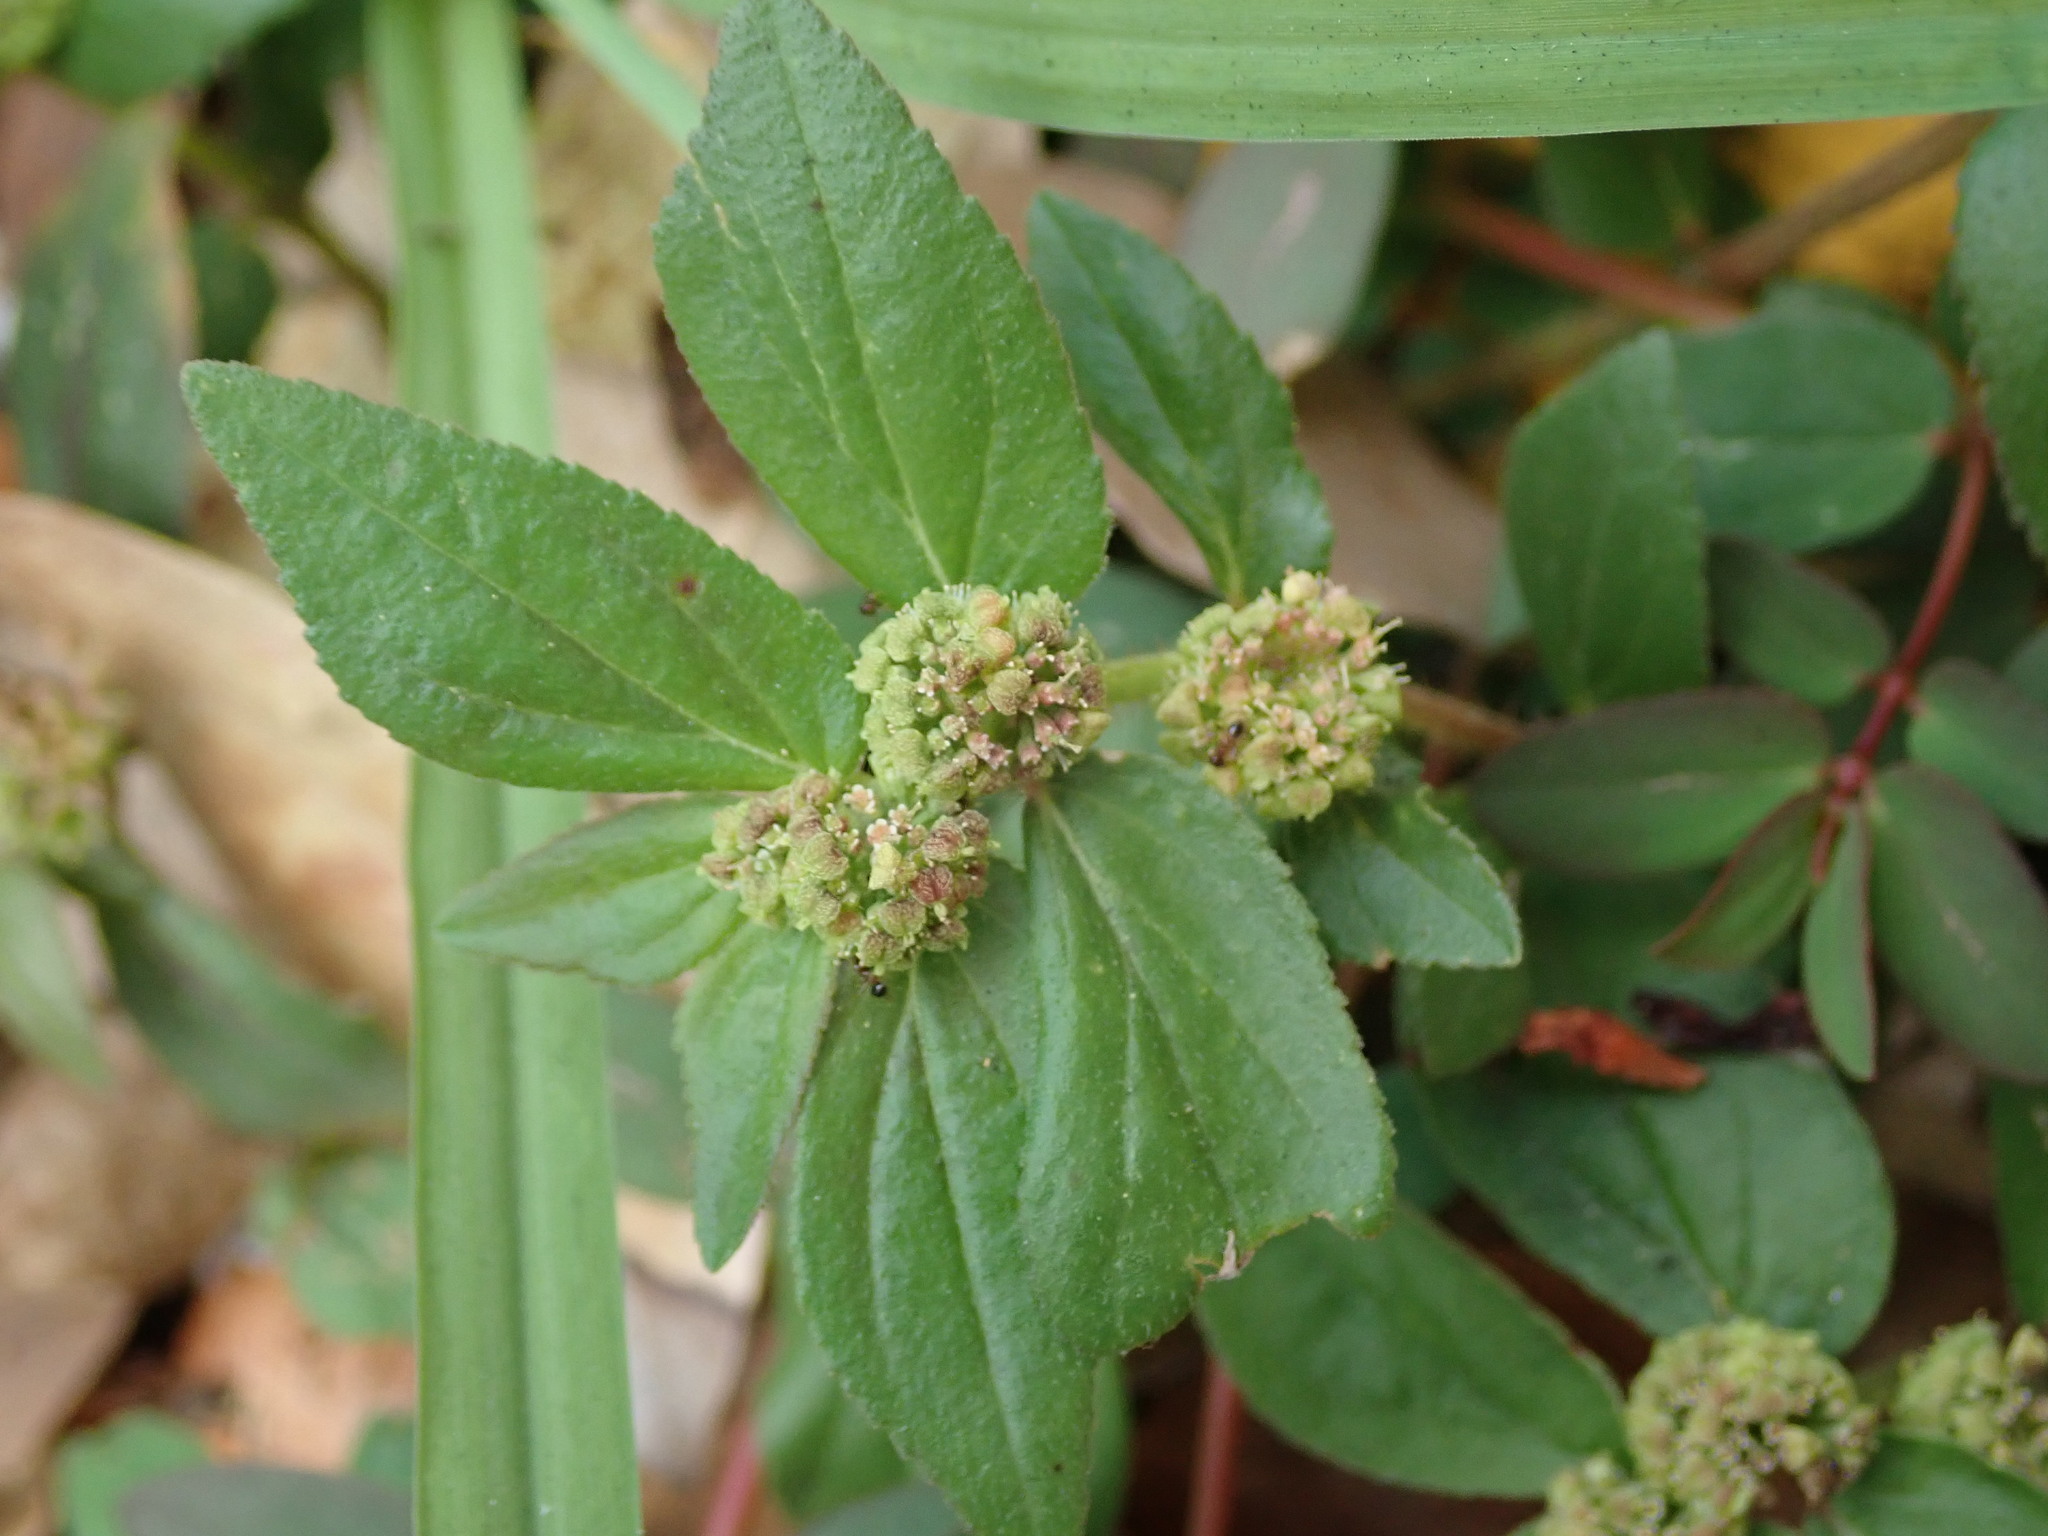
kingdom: Plantae
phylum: Tracheophyta
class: Magnoliopsida
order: Malpighiales
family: Euphorbiaceae
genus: Euphorbia
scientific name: Euphorbia hirta
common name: Pillpod sandmat
